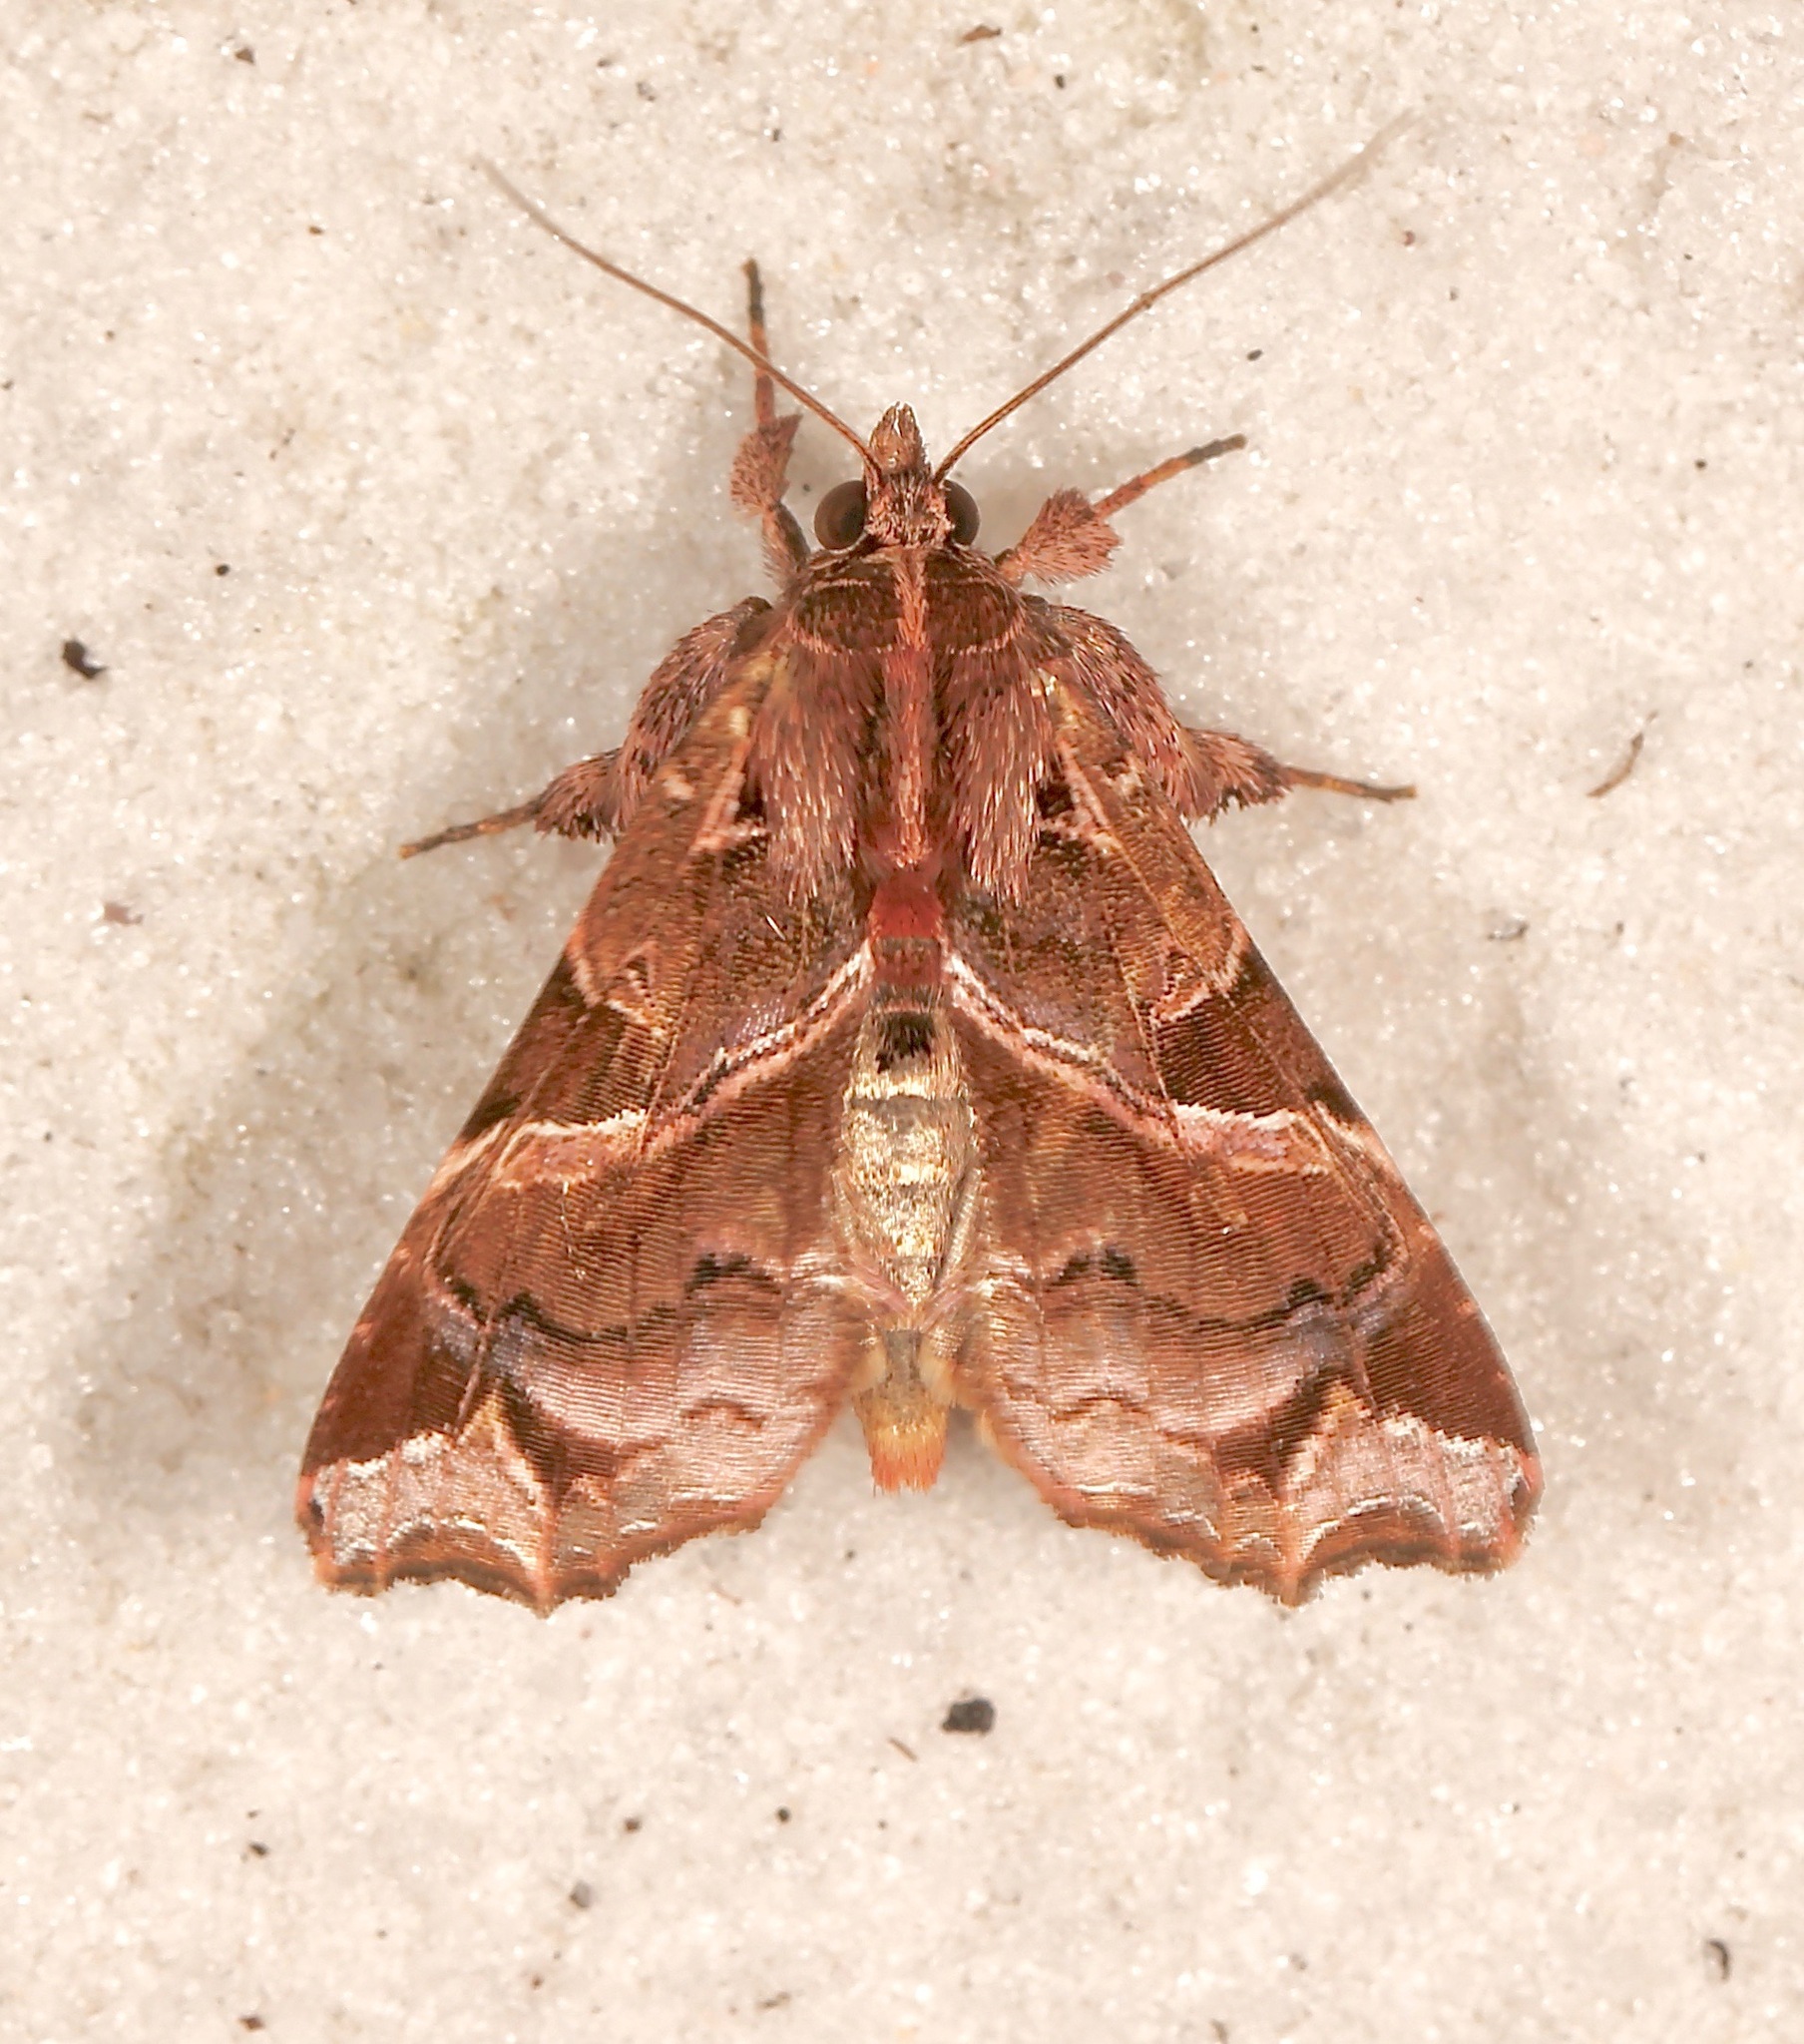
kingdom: Animalia
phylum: Arthropoda
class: Insecta
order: Lepidoptera
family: Noctuidae
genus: Callopistria
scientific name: Callopistria floridensis
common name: Florida fern moth
